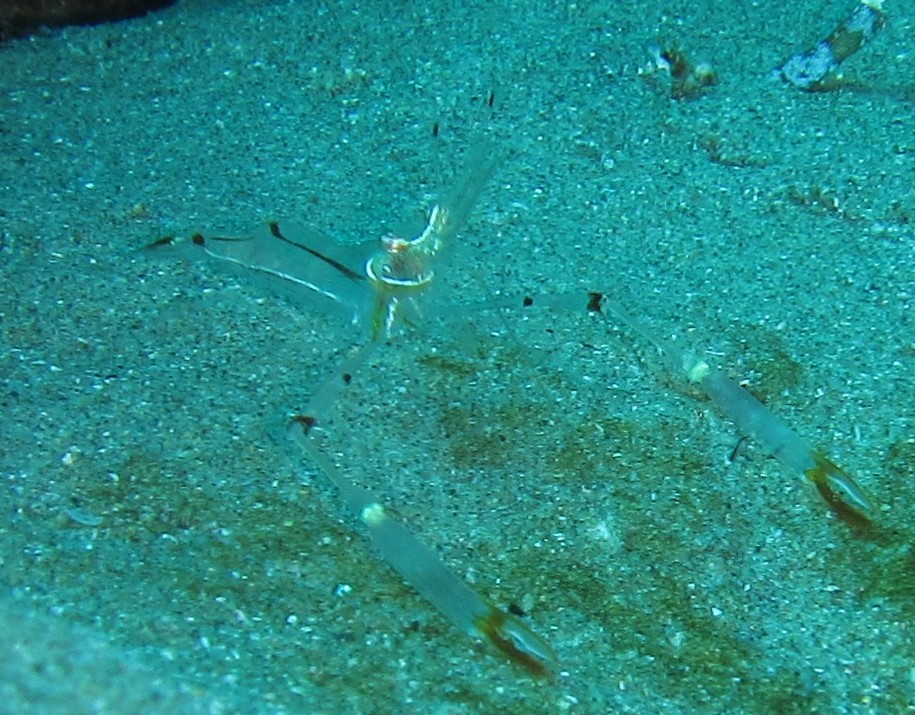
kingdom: Animalia
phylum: Arthropoda
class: Malacostraca
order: Decapoda
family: Palaemonidae
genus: Cuapetes
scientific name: Cuapetes tenuipes
